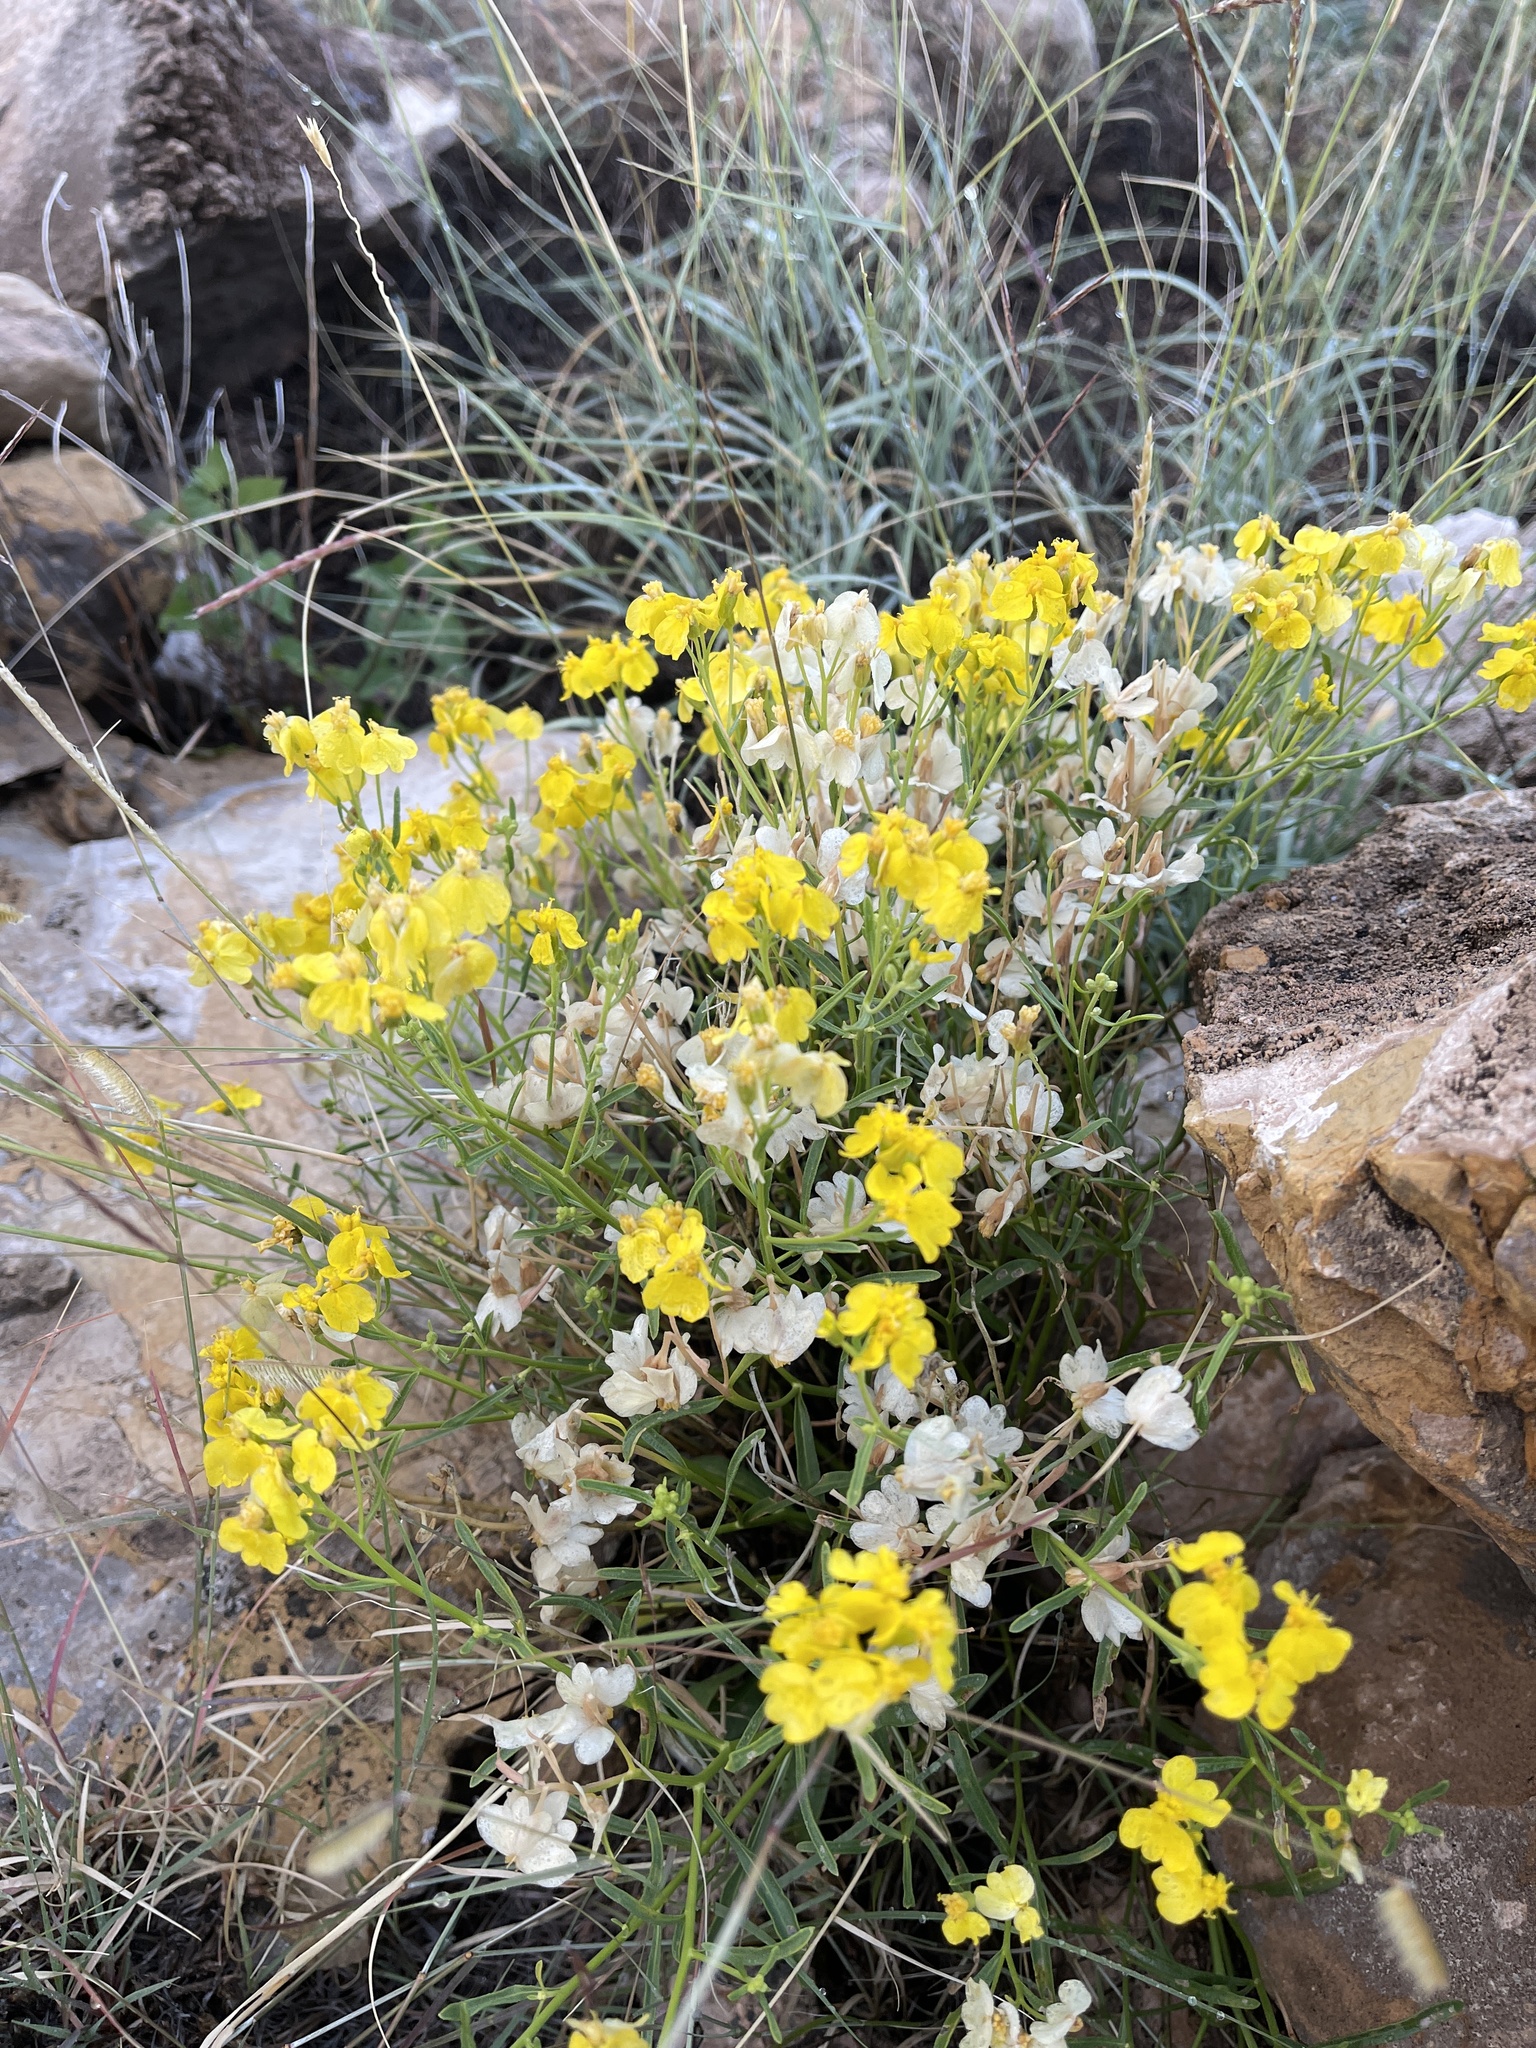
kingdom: Plantae
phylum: Tracheophyta
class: Magnoliopsida
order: Asterales
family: Asteraceae
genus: Psilostrophe
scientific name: Psilostrophe tagetina
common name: Marigold paper-flower
